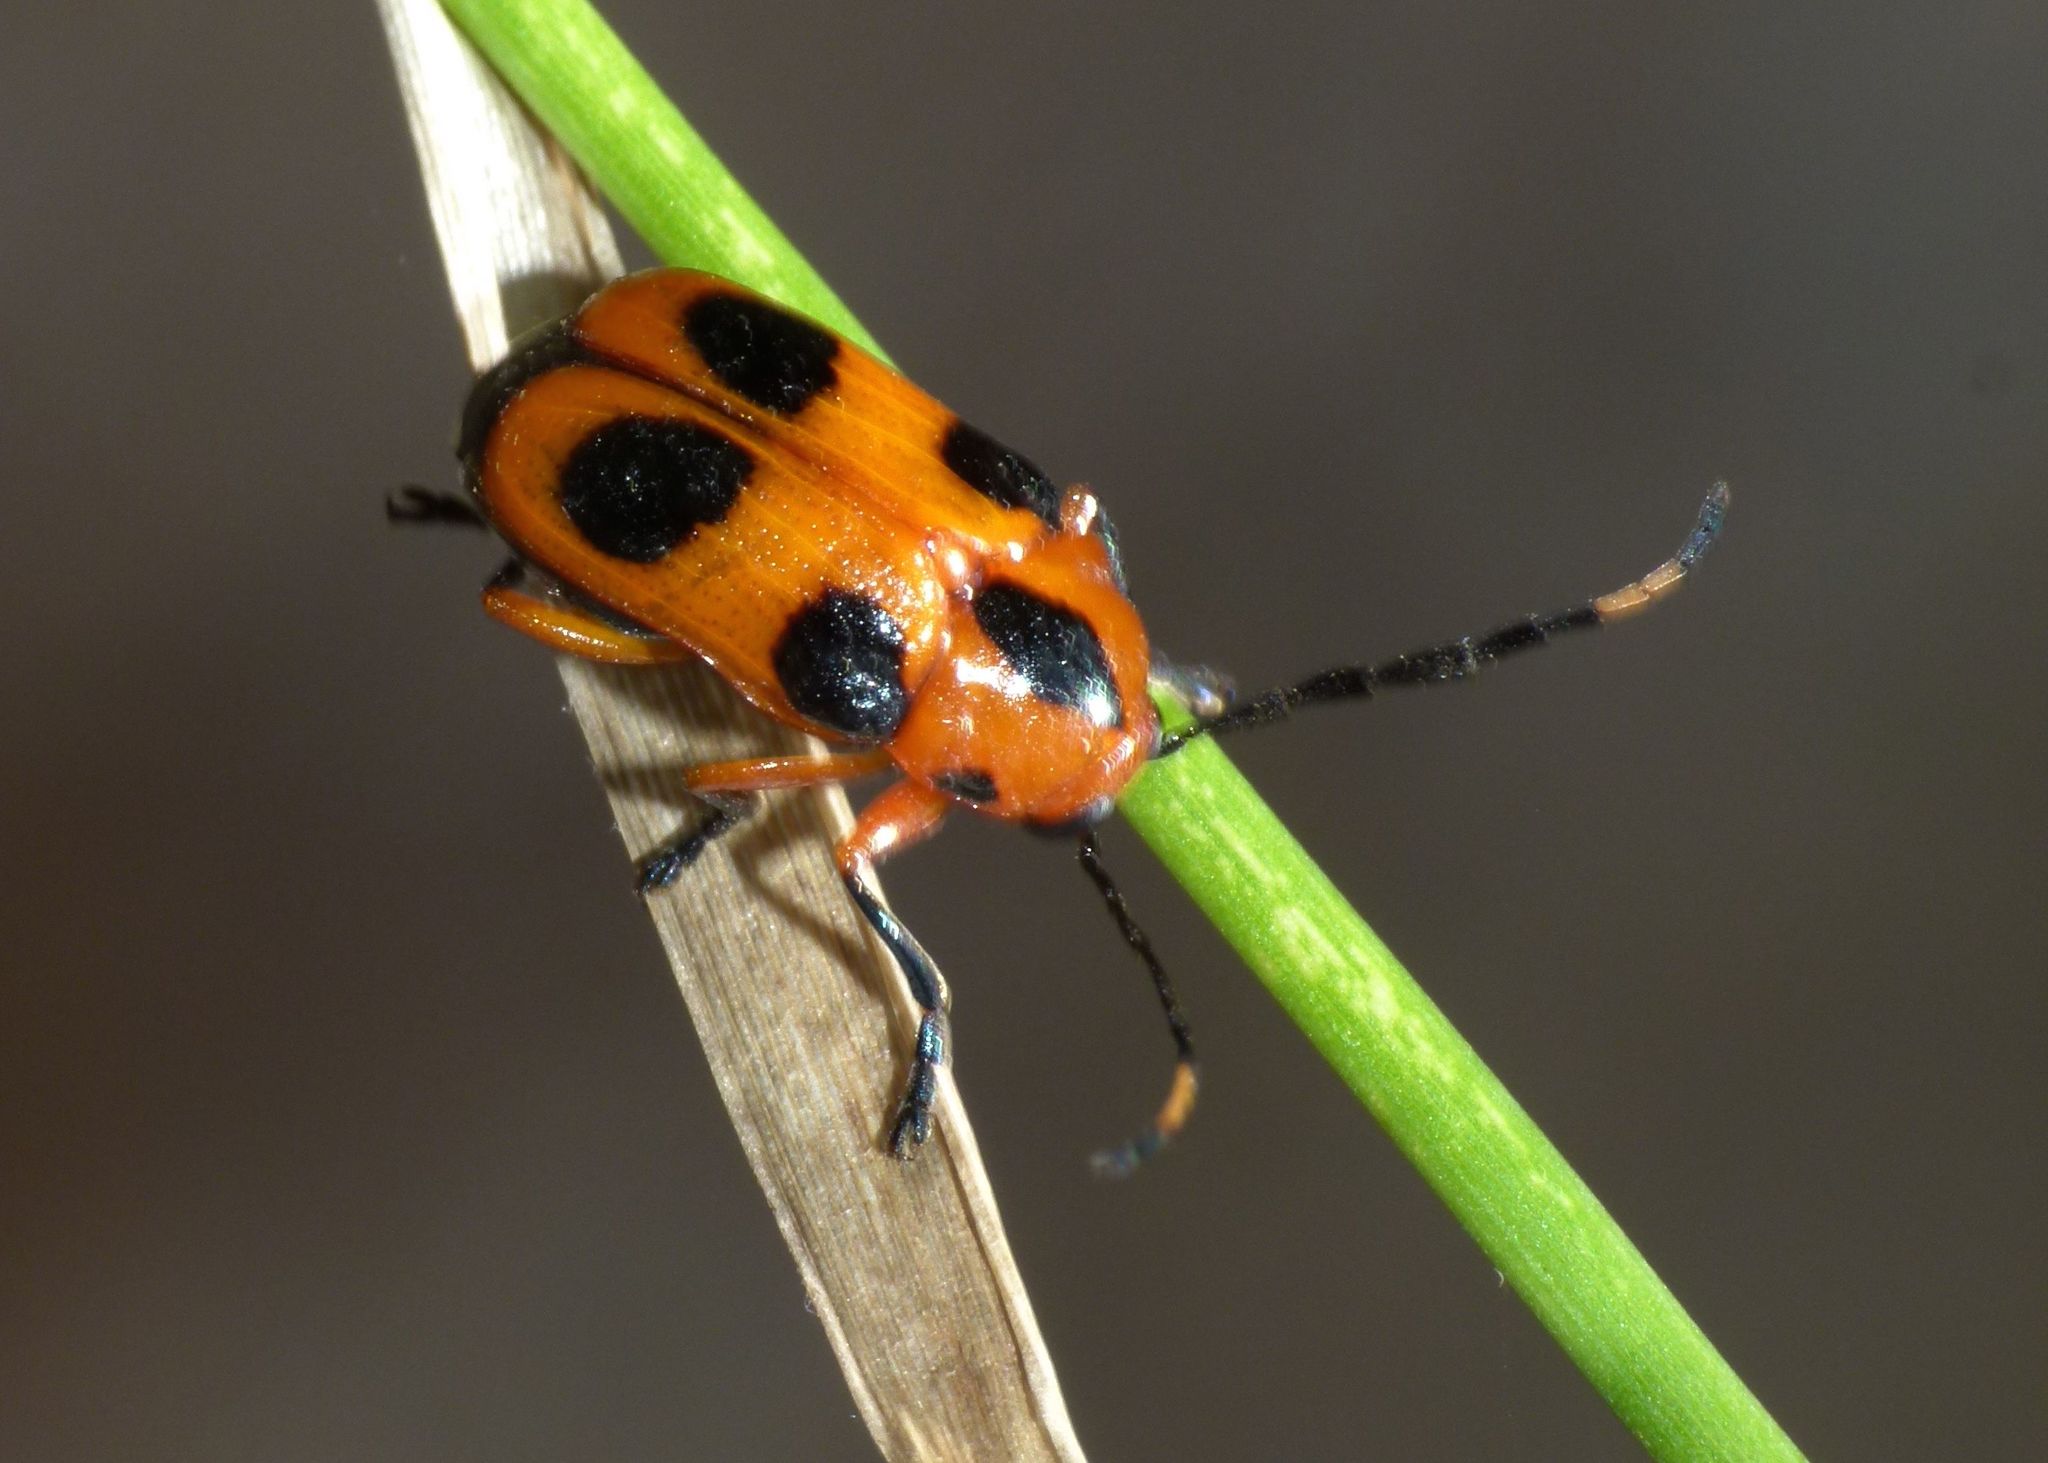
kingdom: Animalia
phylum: Arthropoda
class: Insecta
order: Coleoptera
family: Chrysomelidae
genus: Aporocera
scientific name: Aporocera
